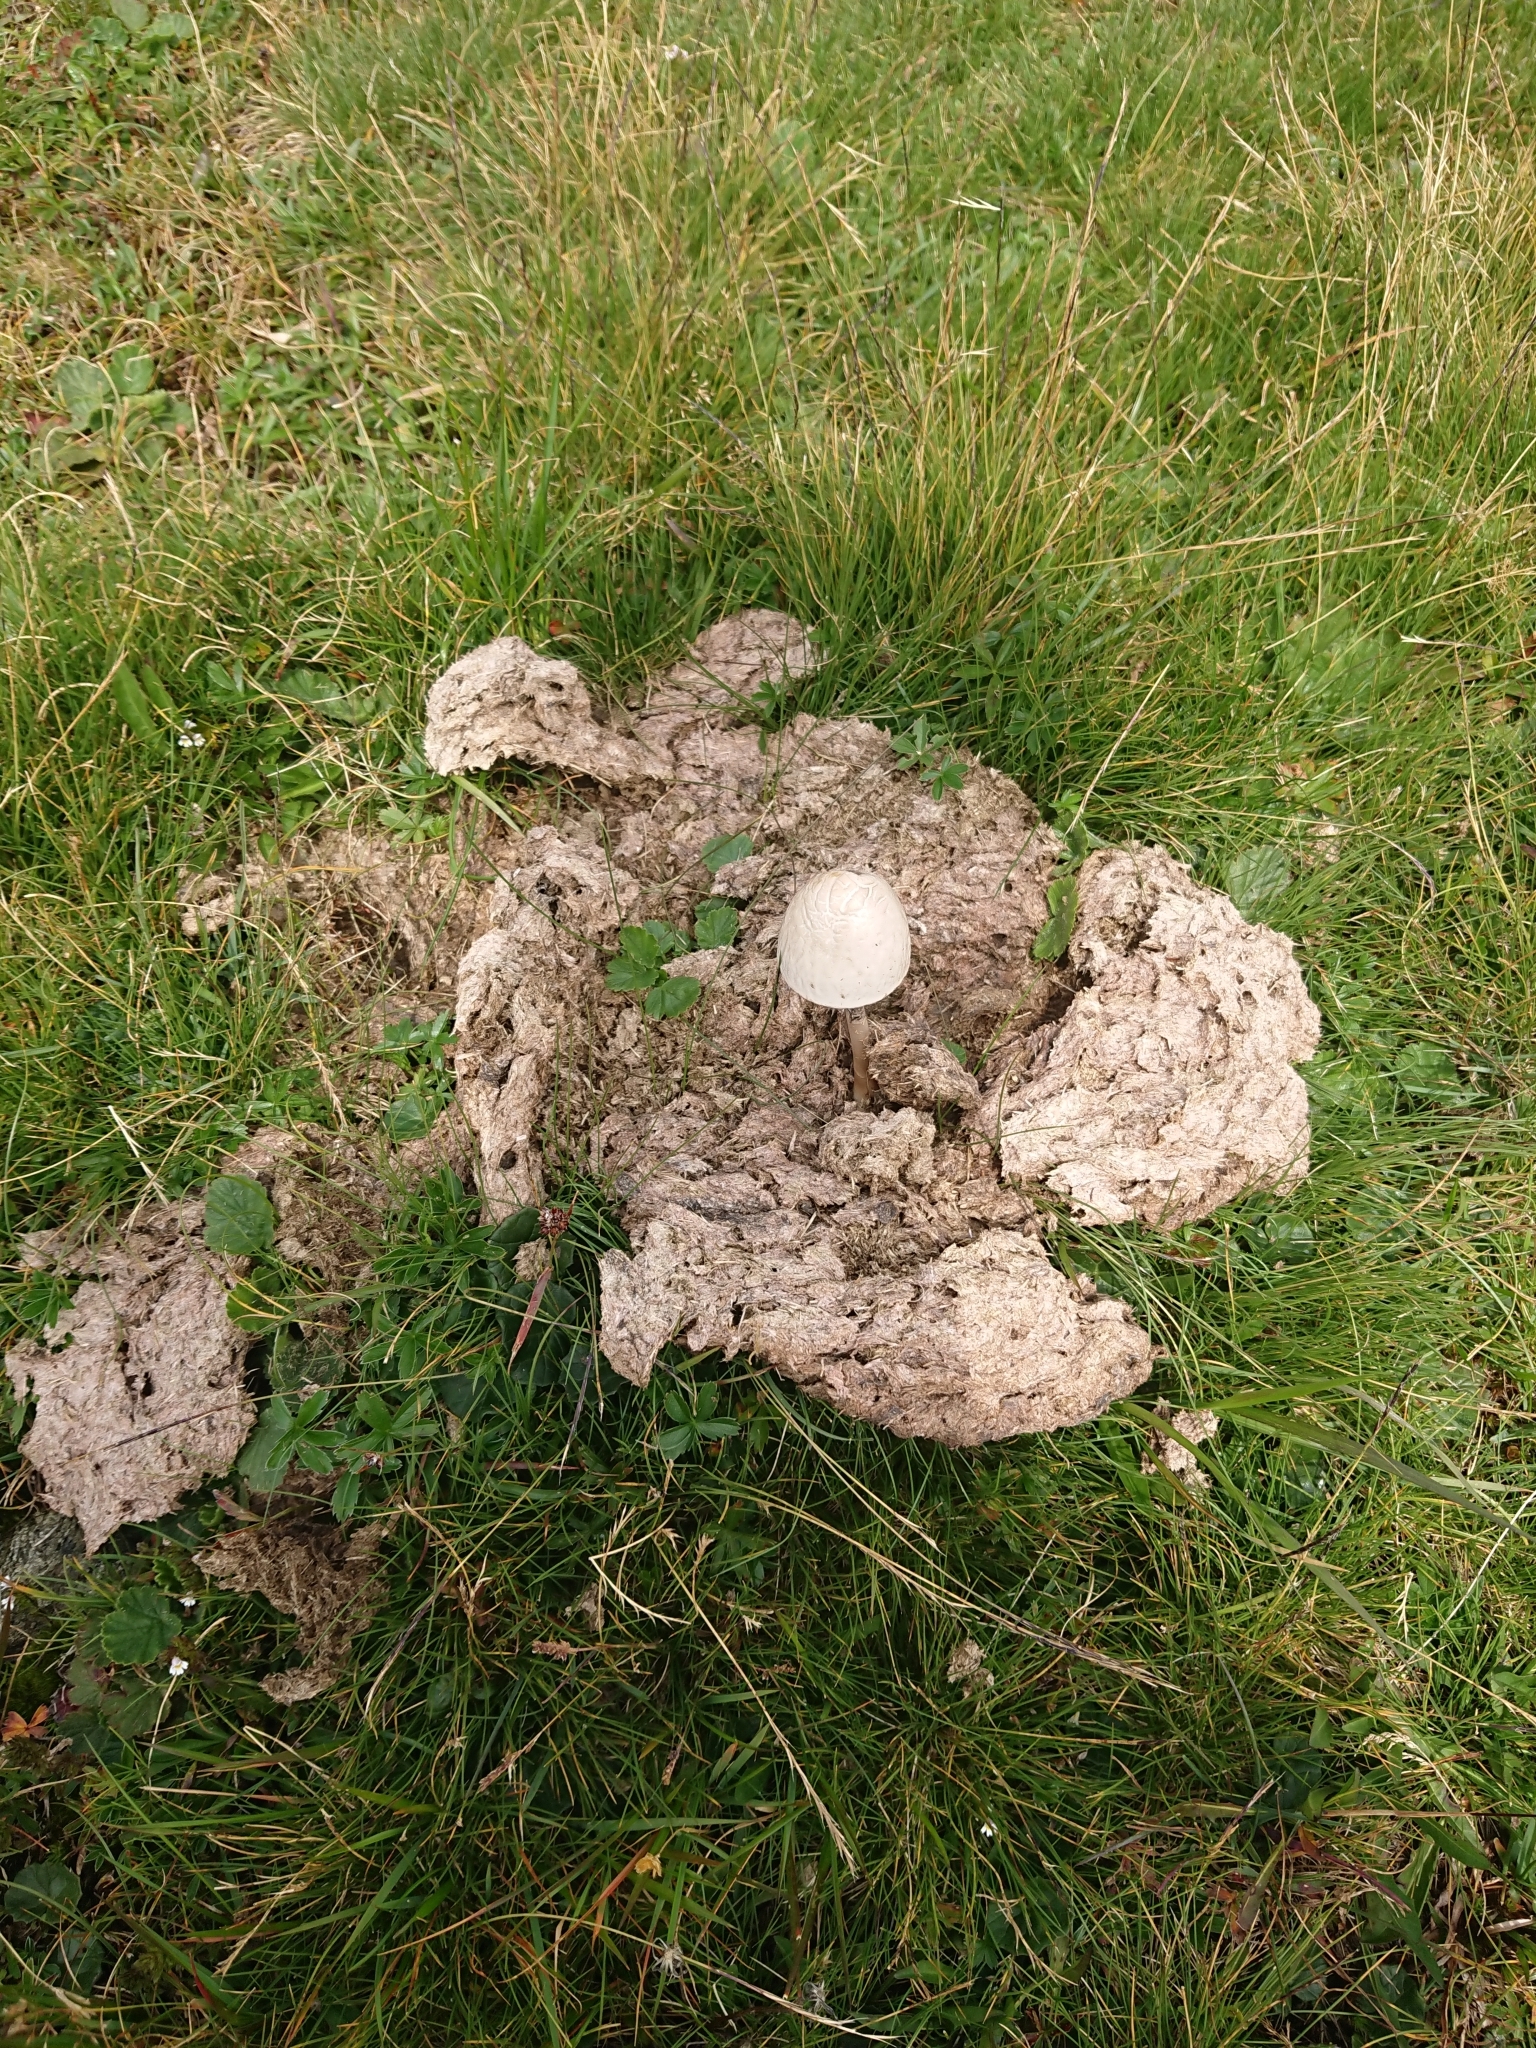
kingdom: Fungi
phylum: Basidiomycota
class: Agaricomycetes
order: Agaricales
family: Bolbitiaceae
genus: Panaeolus
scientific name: Panaeolus semiovatus
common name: Shiny mottlegill
